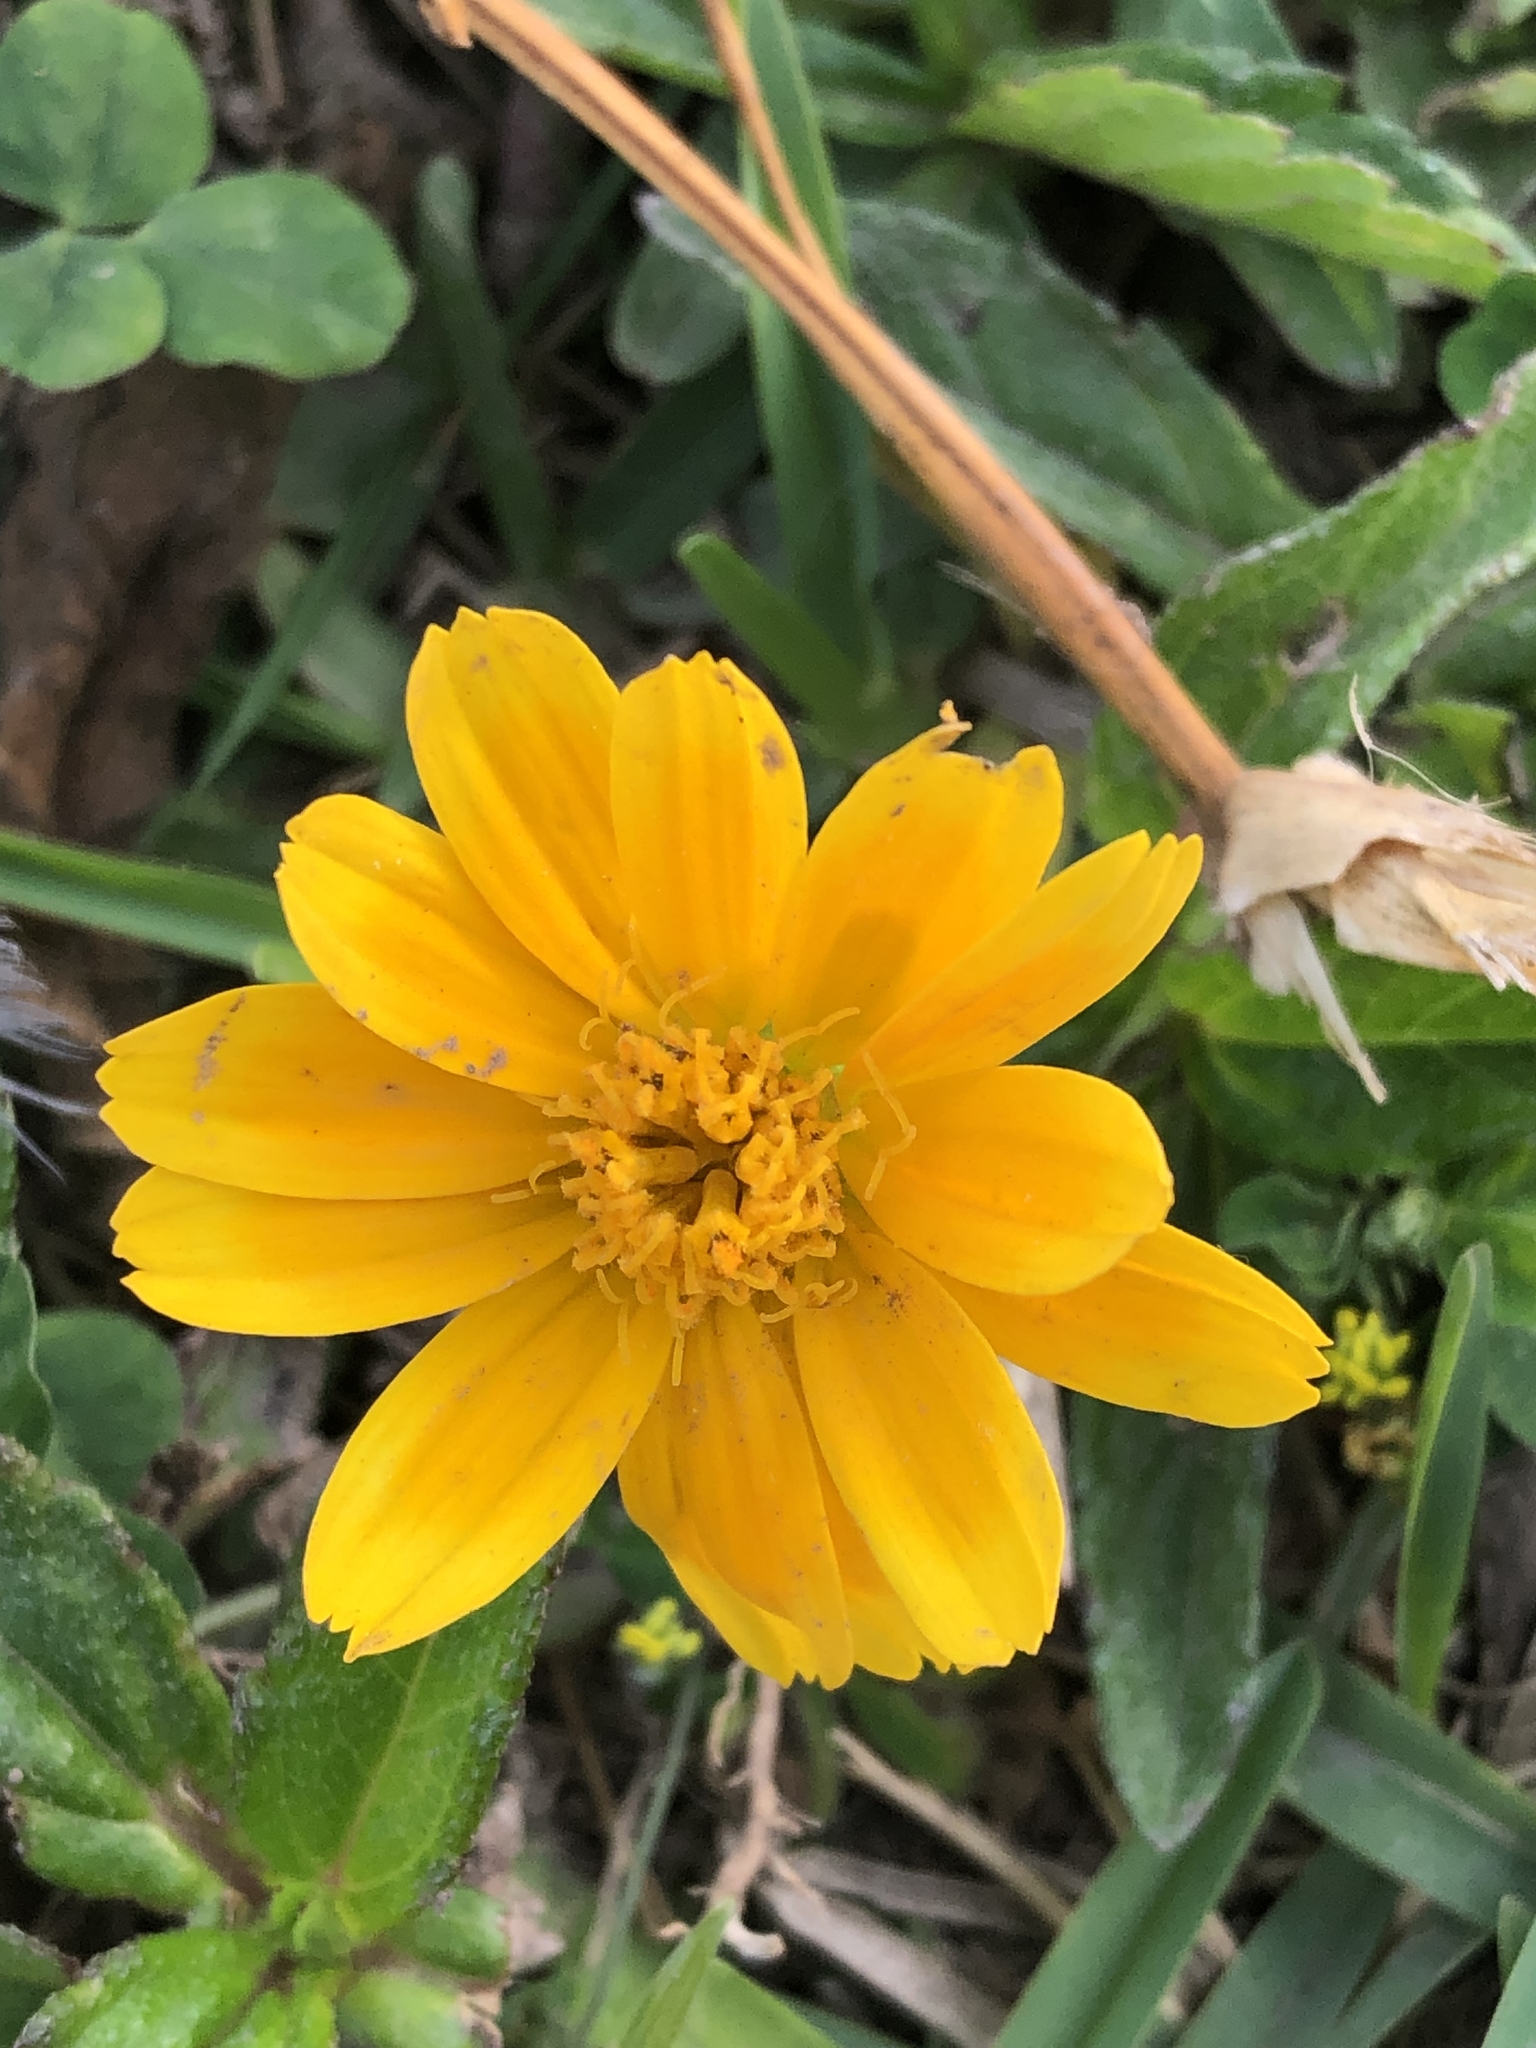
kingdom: Plantae
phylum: Tracheophyta
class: Magnoliopsida
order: Asterales
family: Asteraceae
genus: Sphagneticola
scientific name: Sphagneticola trilobata
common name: Bay biscayne creeping-oxeye
